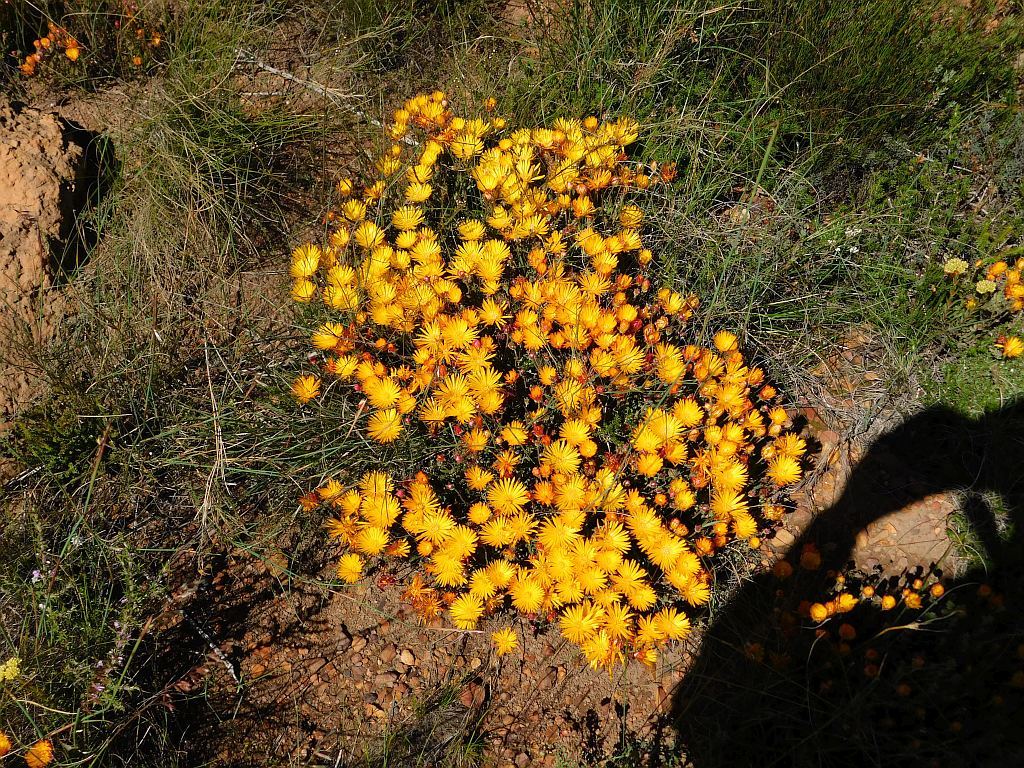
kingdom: Plantae
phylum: Tracheophyta
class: Magnoliopsida
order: Caryophyllales
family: Aizoaceae
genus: Drosanthemum
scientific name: Drosanthemum flavum
